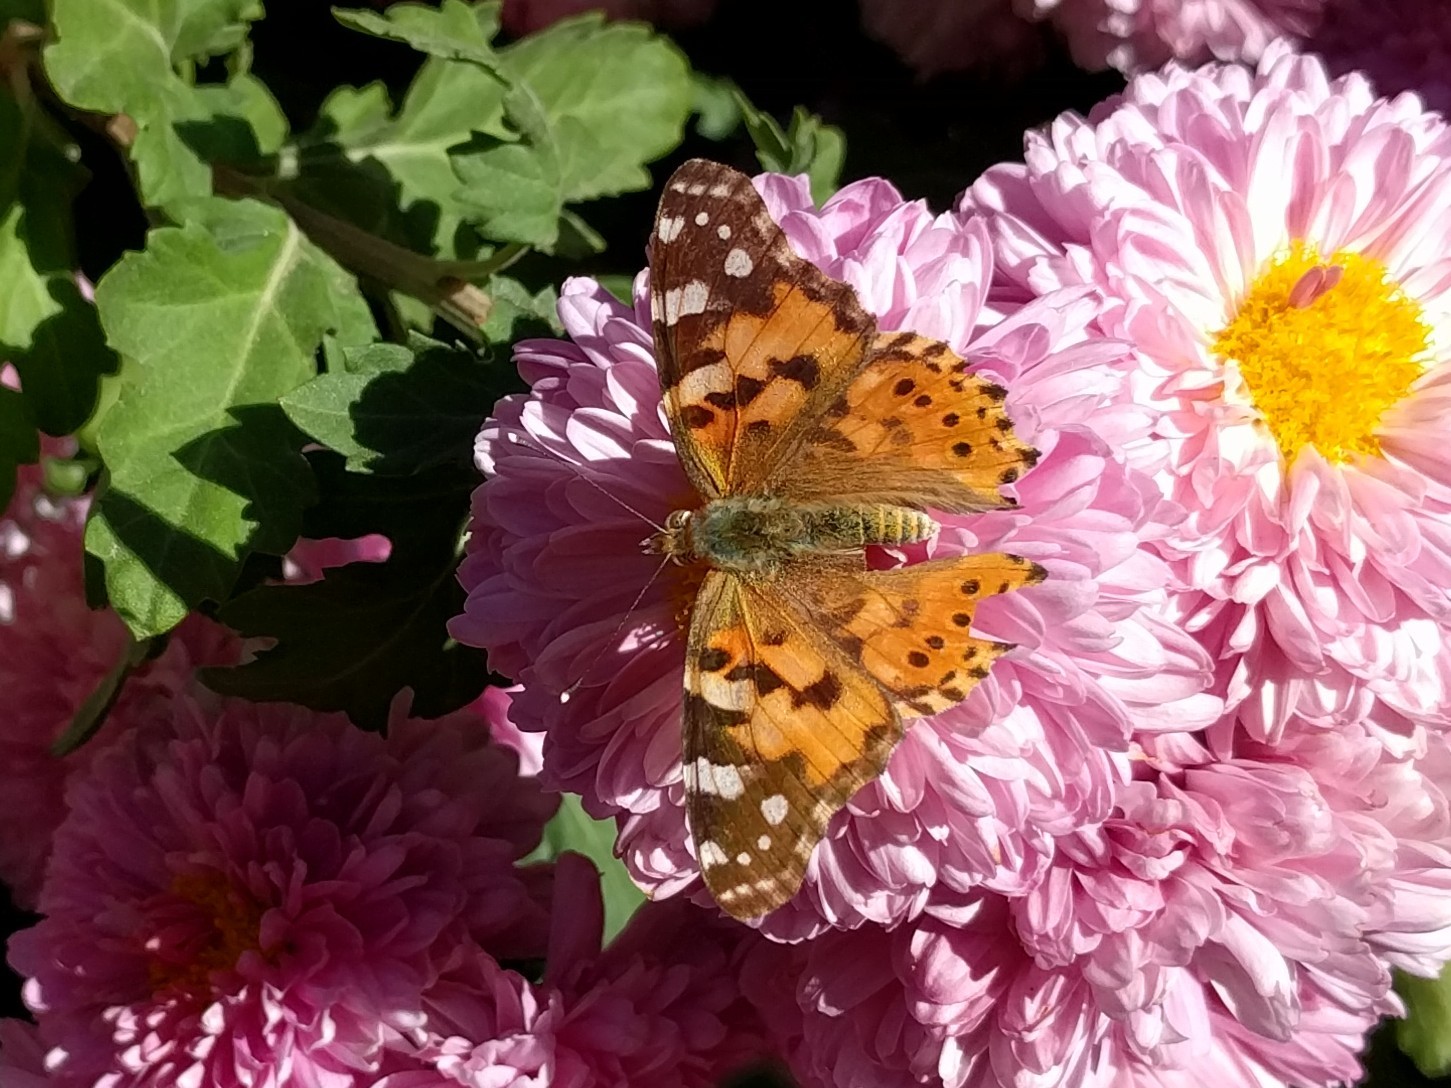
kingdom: Animalia
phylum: Arthropoda
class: Insecta
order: Lepidoptera
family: Nymphalidae
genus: Vanessa
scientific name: Vanessa cardui
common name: Painted lady
